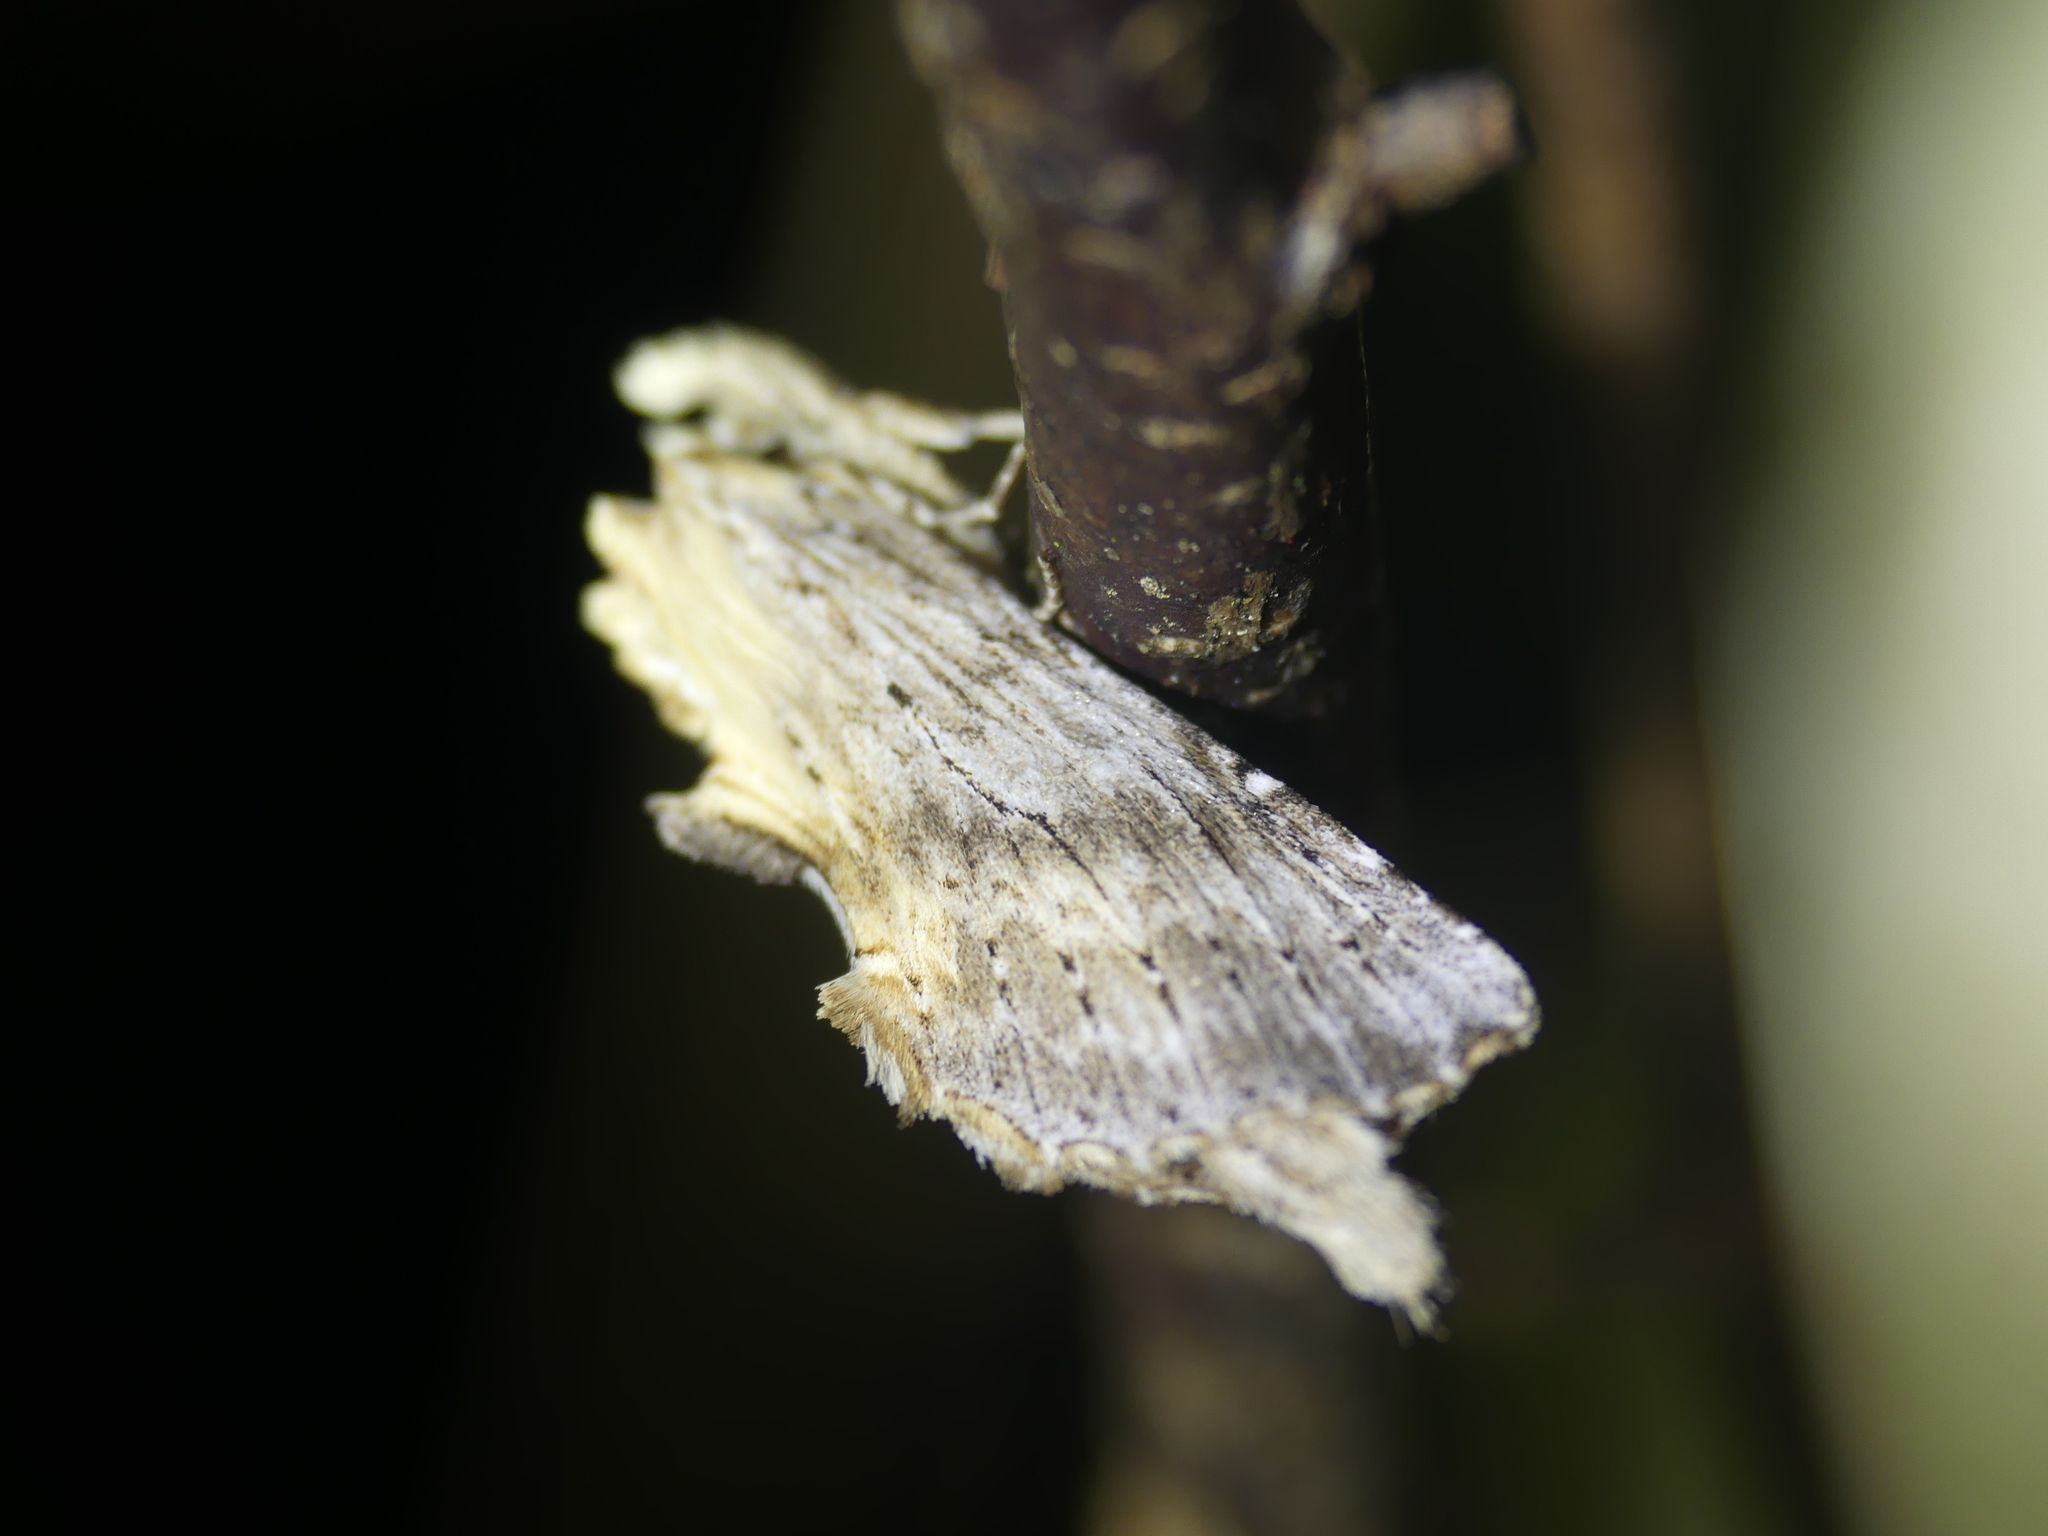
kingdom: Animalia
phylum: Arthropoda
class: Insecta
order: Lepidoptera
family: Notodontidae
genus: Pterostoma
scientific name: Pterostoma palpina
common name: Pale prominent
